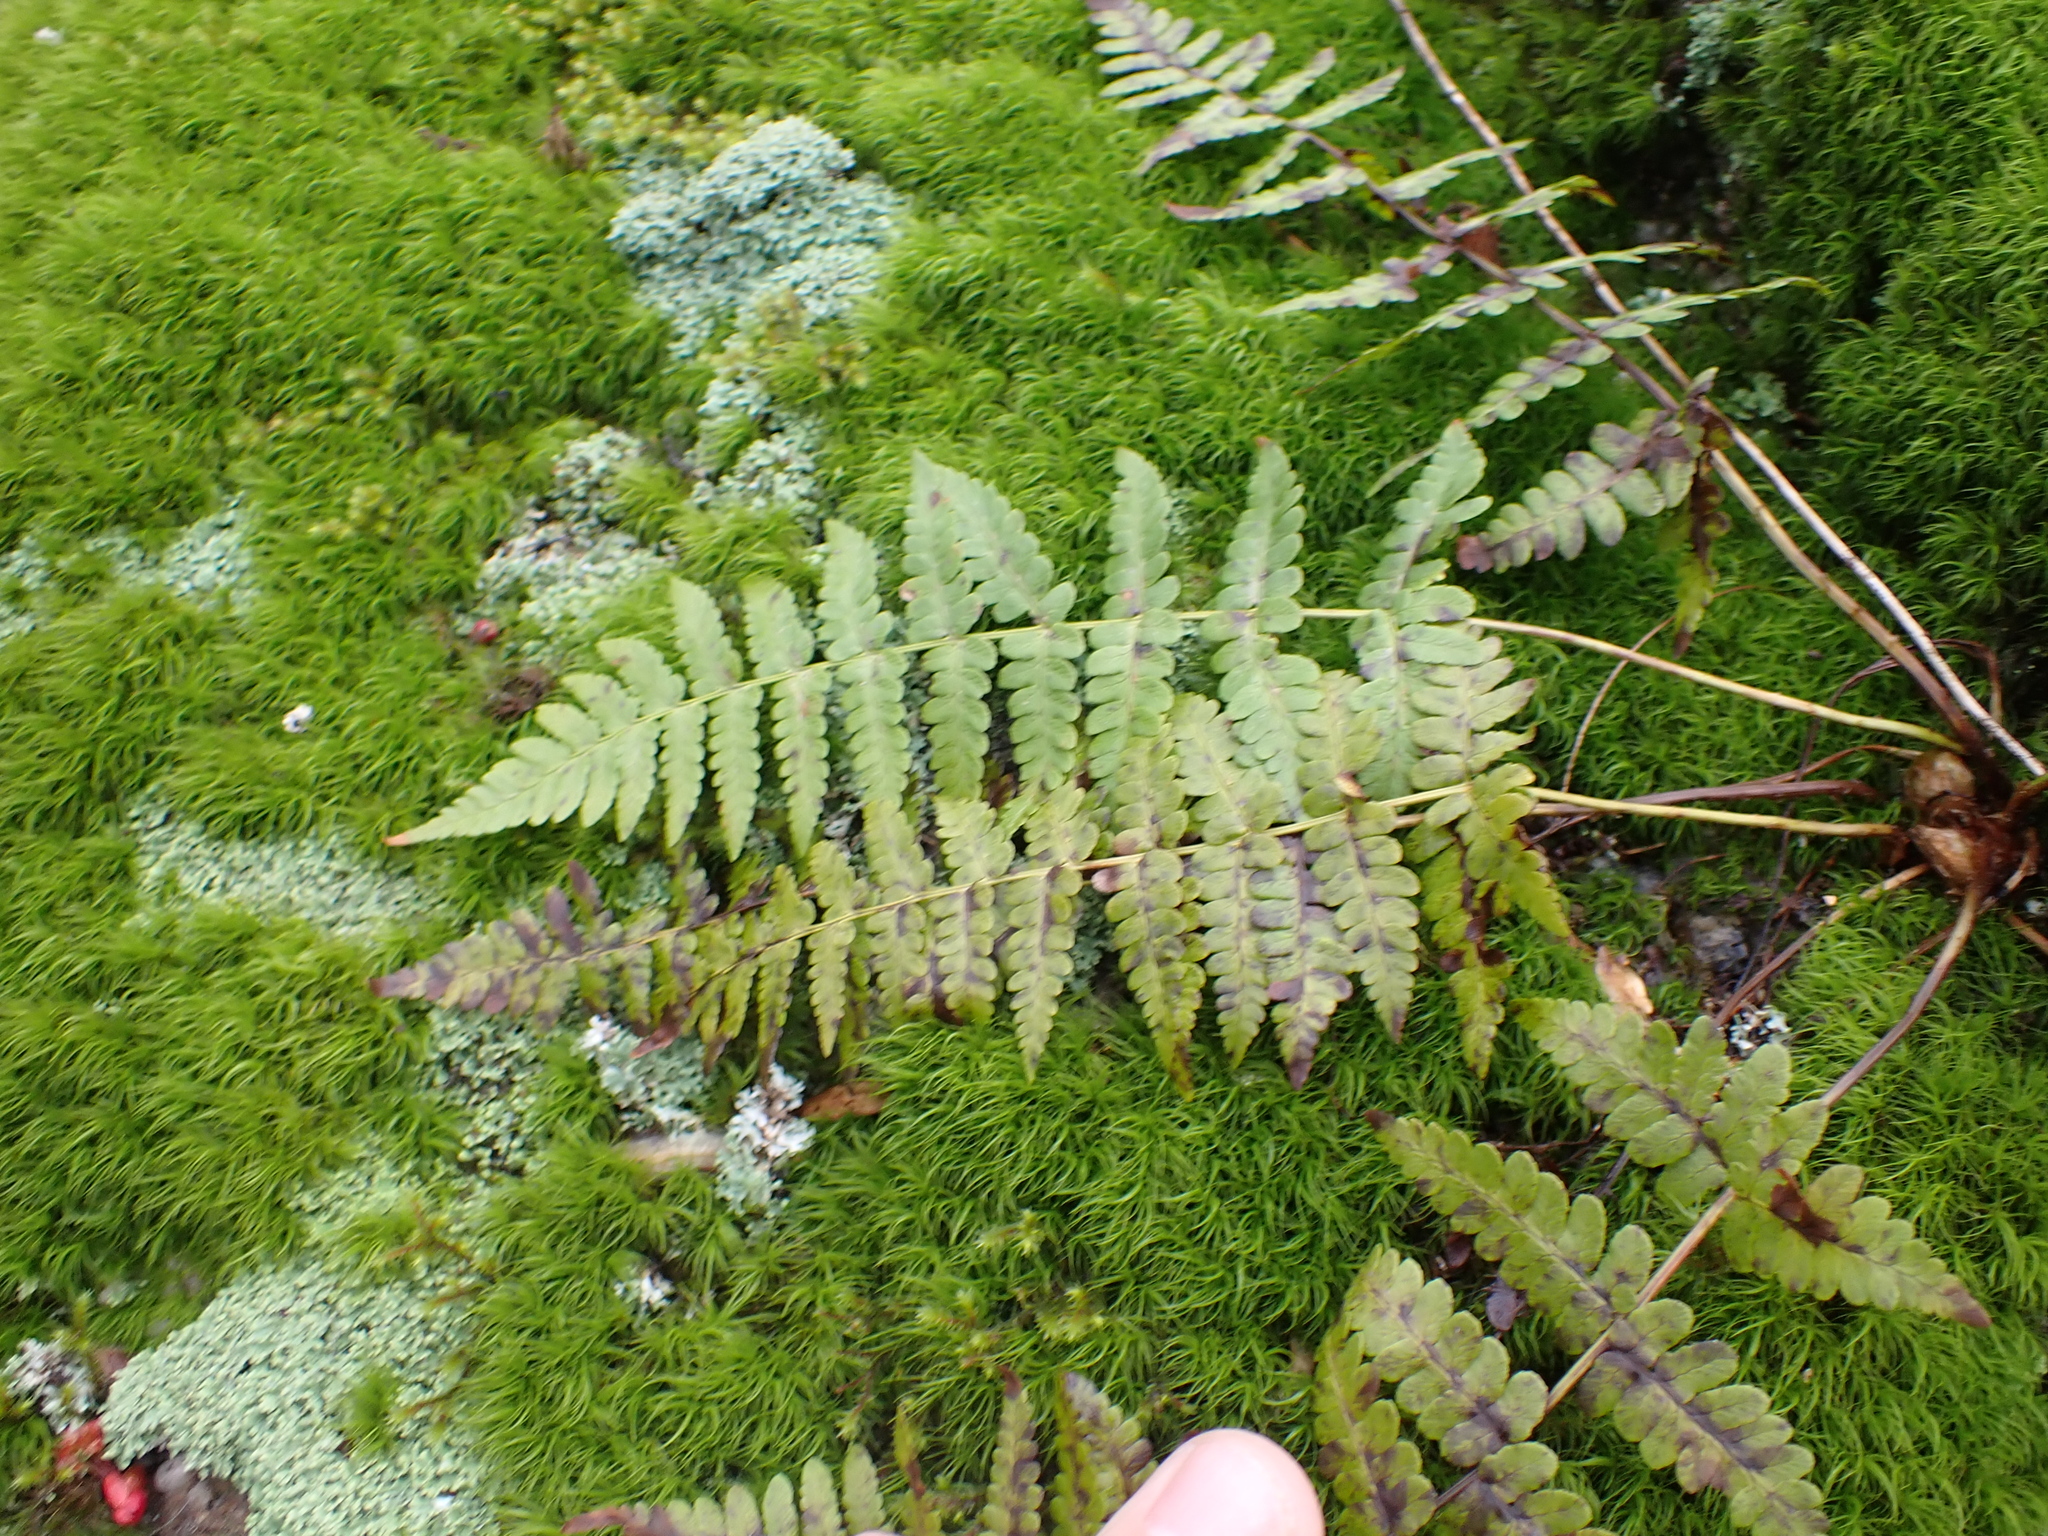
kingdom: Plantae
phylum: Tracheophyta
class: Polypodiopsida
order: Polypodiales
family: Dryopteridaceae
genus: Dryopteris
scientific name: Dryopteris marginalis
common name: Marginal wood fern
